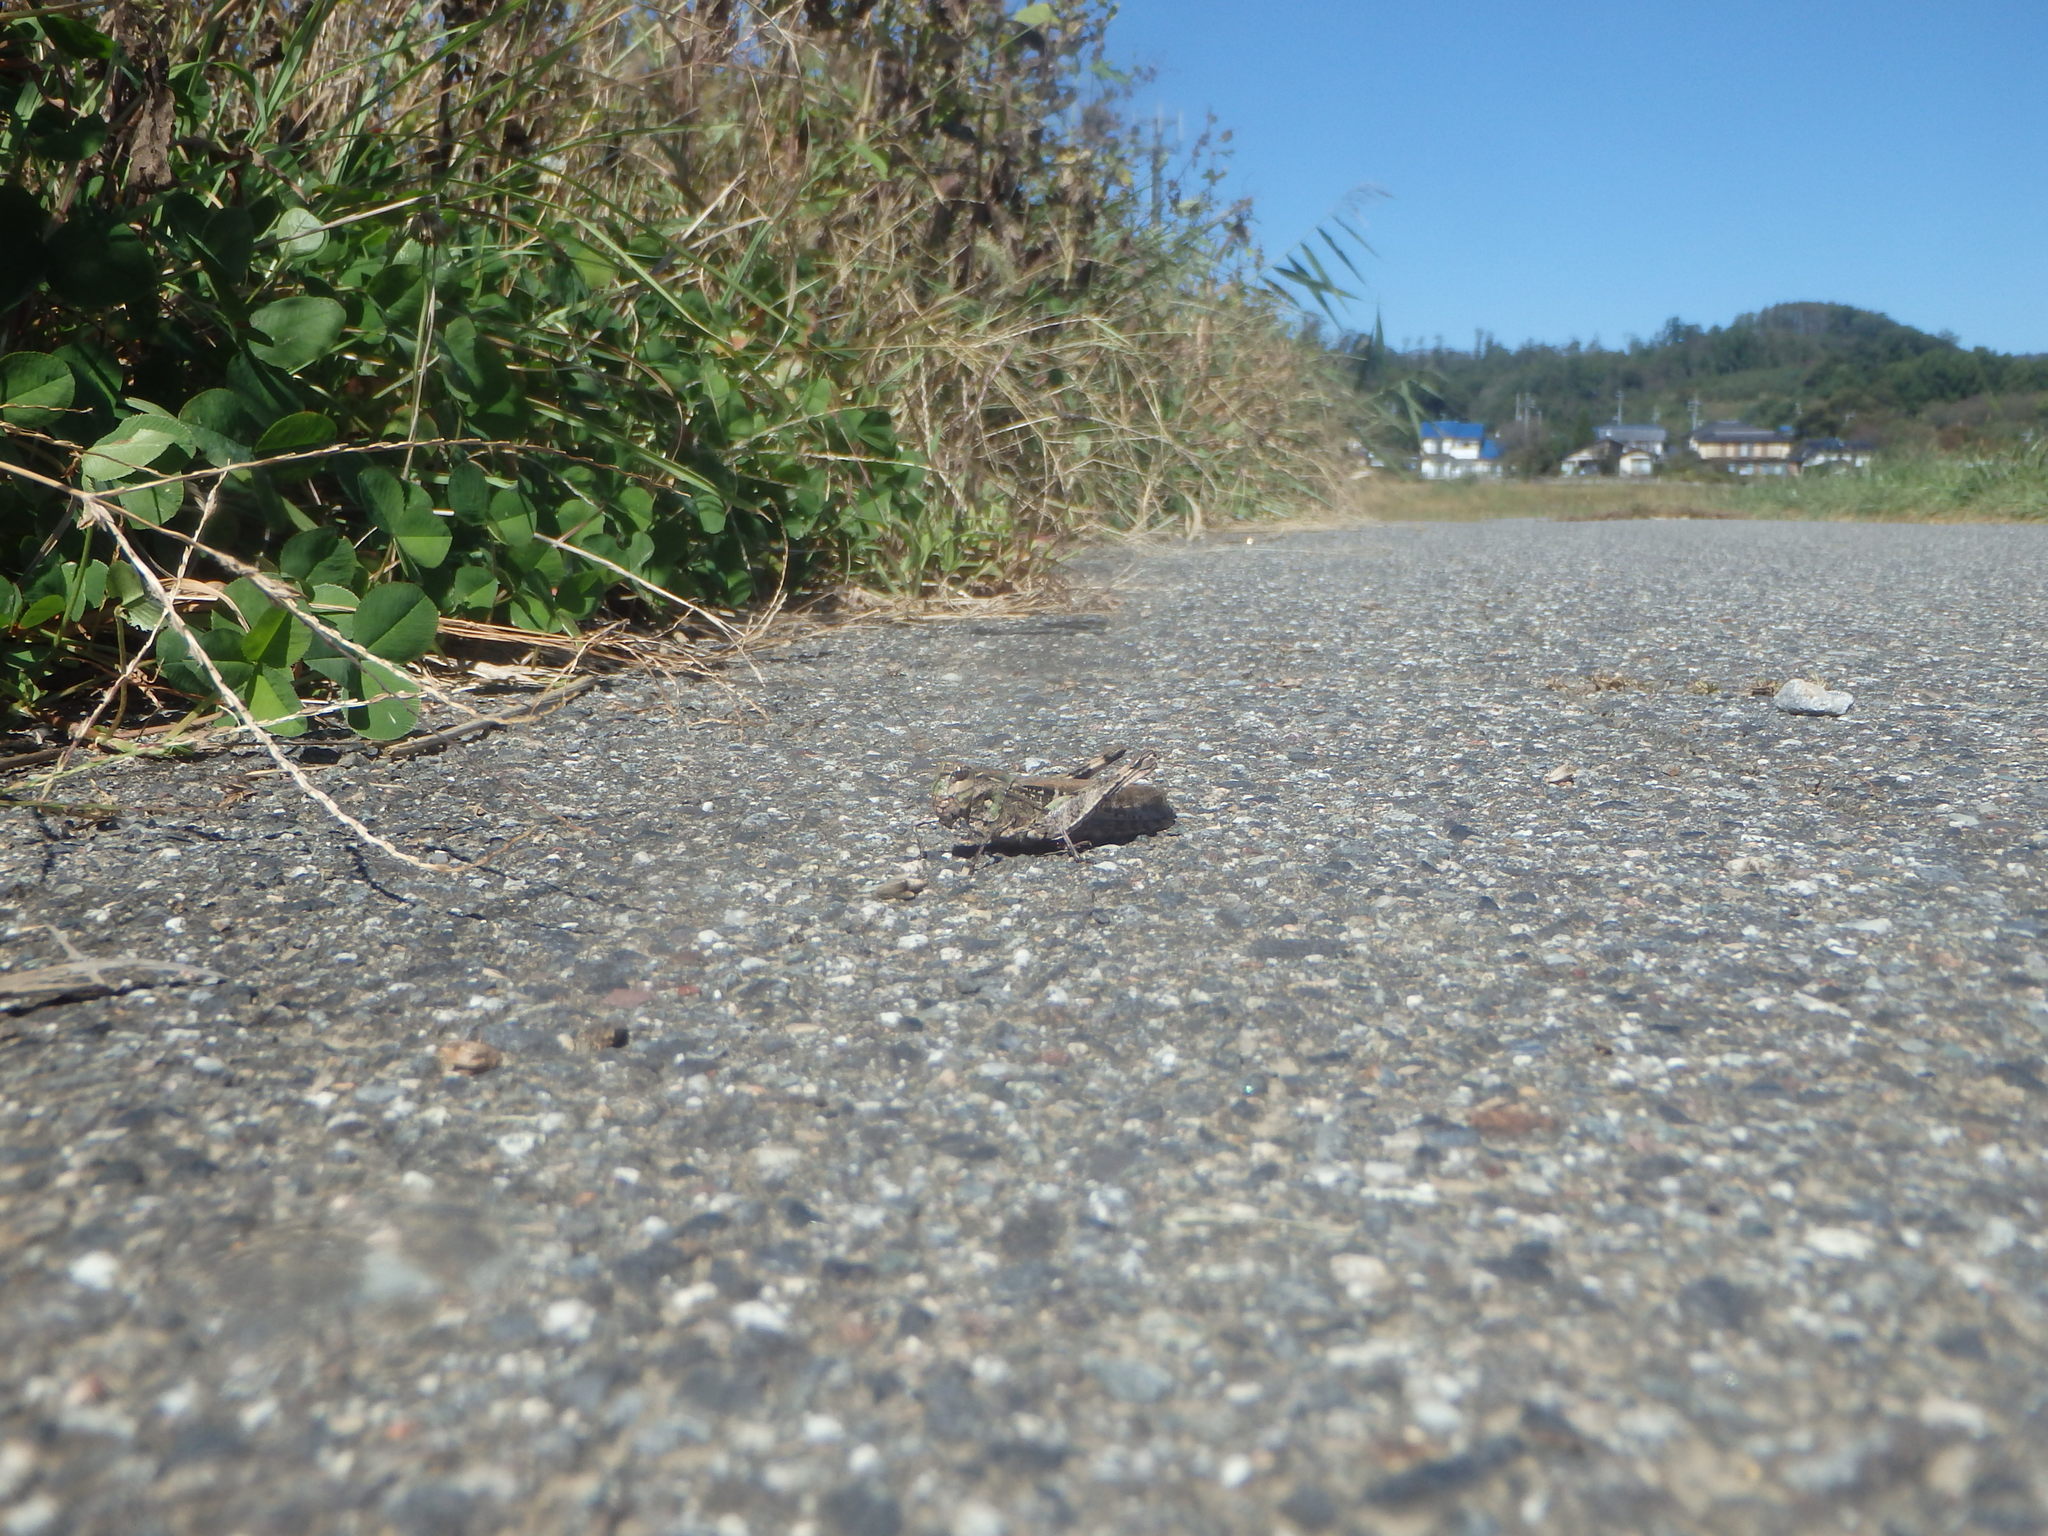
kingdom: Animalia
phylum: Arthropoda
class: Insecta
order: Orthoptera
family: Acrididae
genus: Oedaleus
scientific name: Oedaleus infernalis
